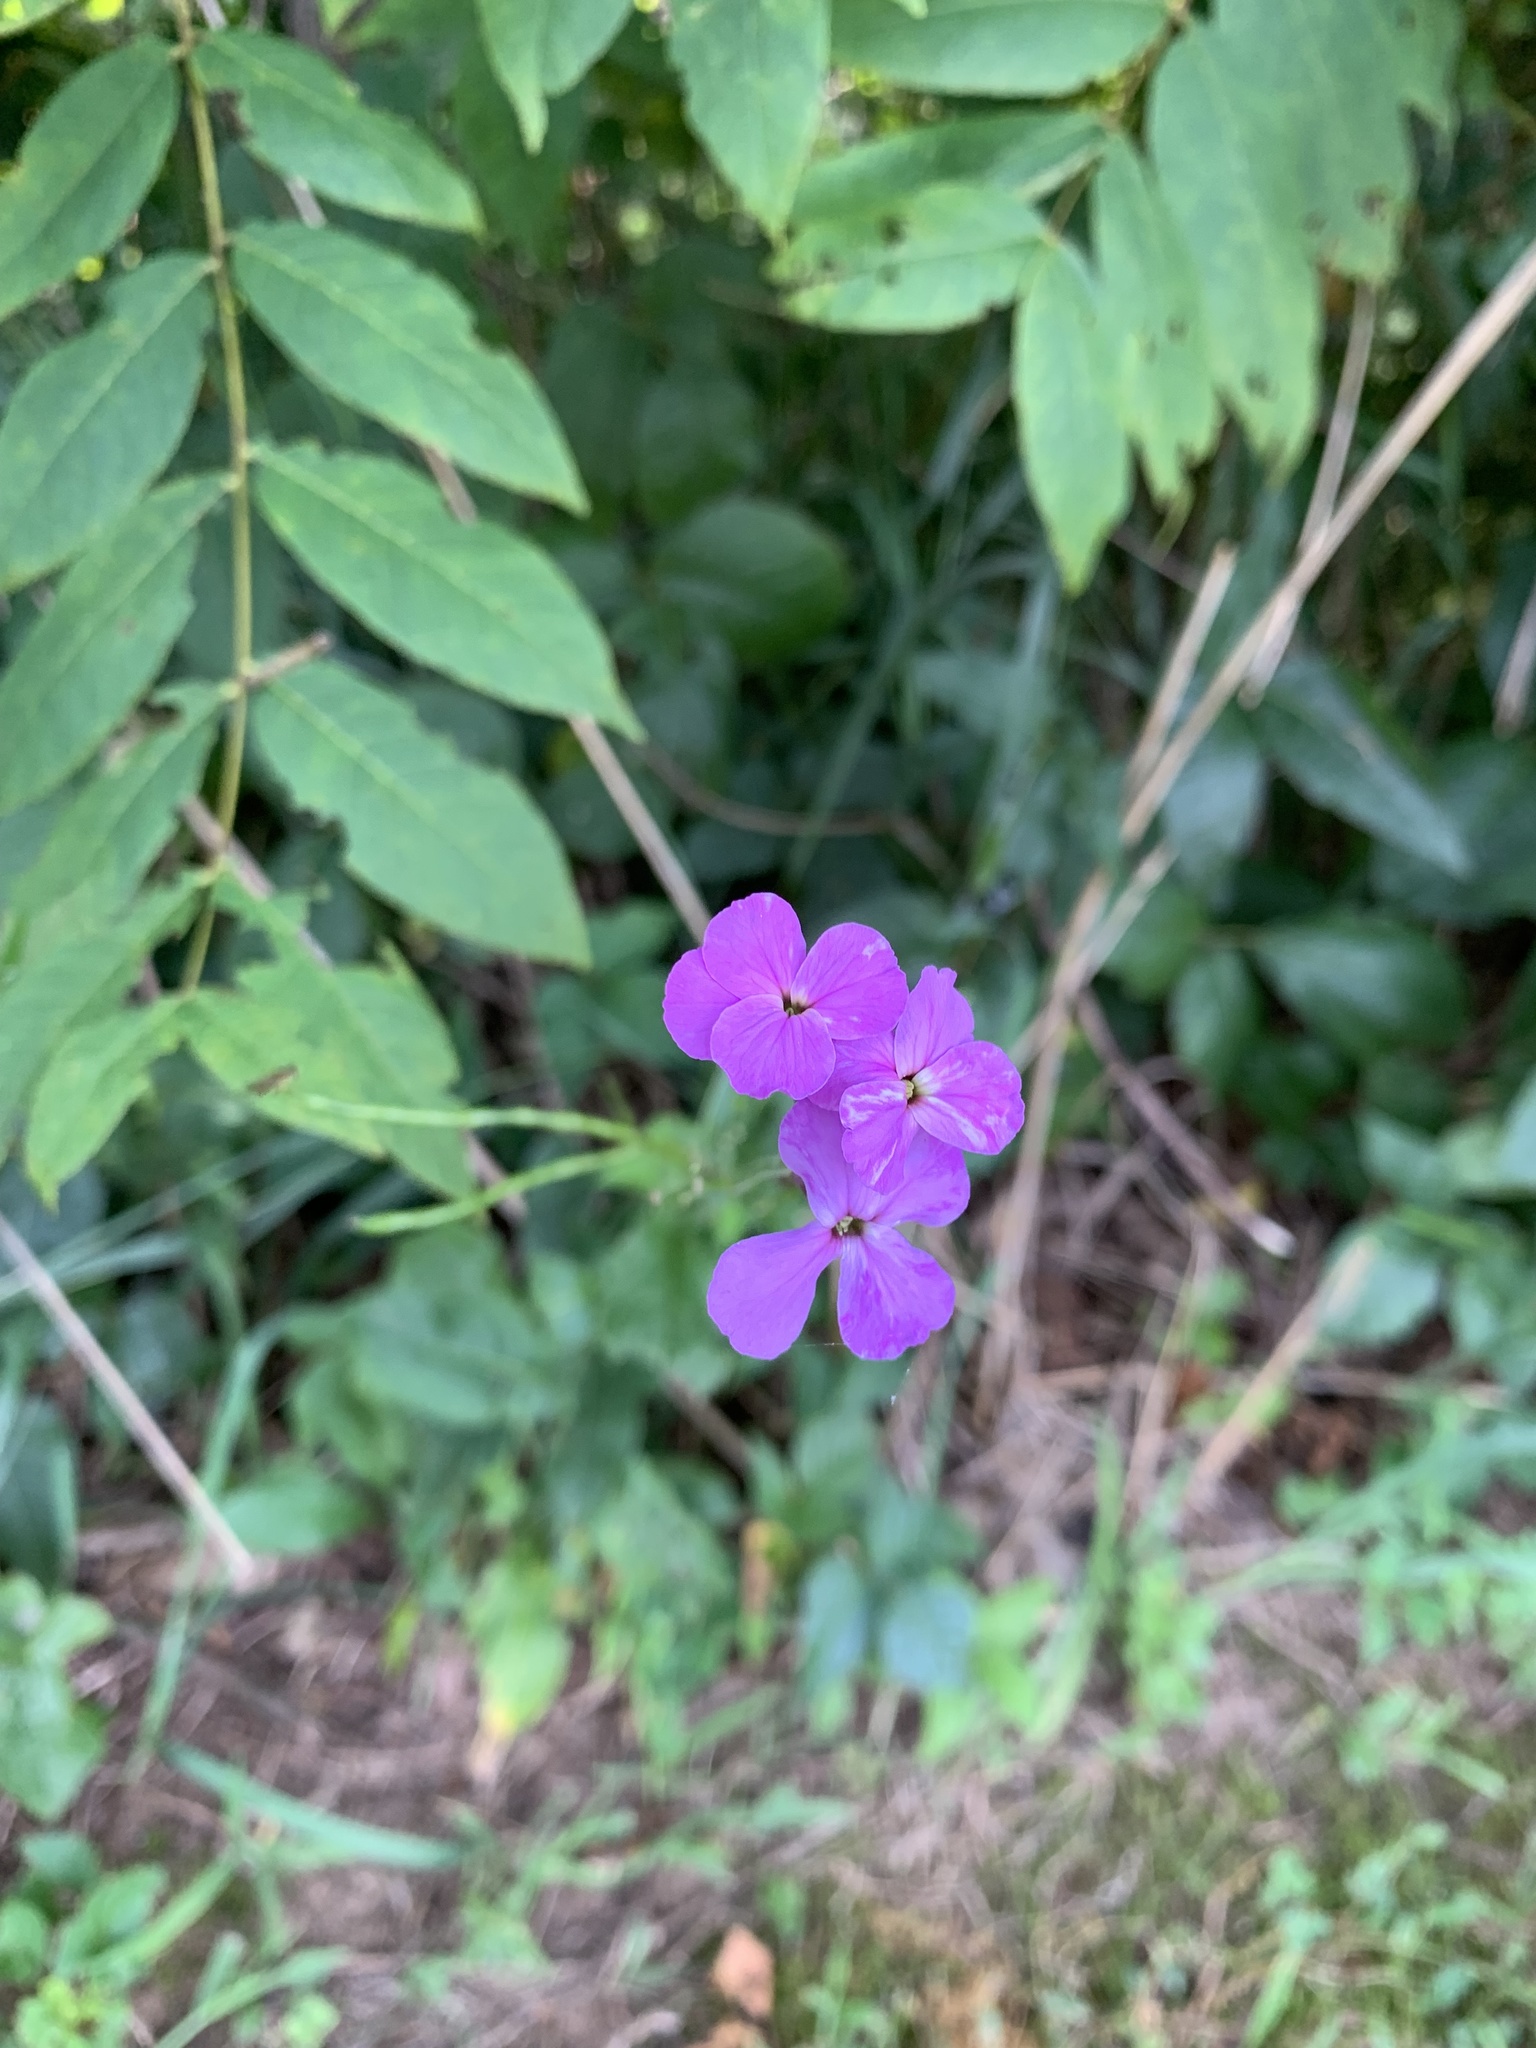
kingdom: Plantae
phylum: Tracheophyta
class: Magnoliopsida
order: Brassicales
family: Brassicaceae
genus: Hesperis
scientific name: Hesperis matronalis
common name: Dame's-violet
